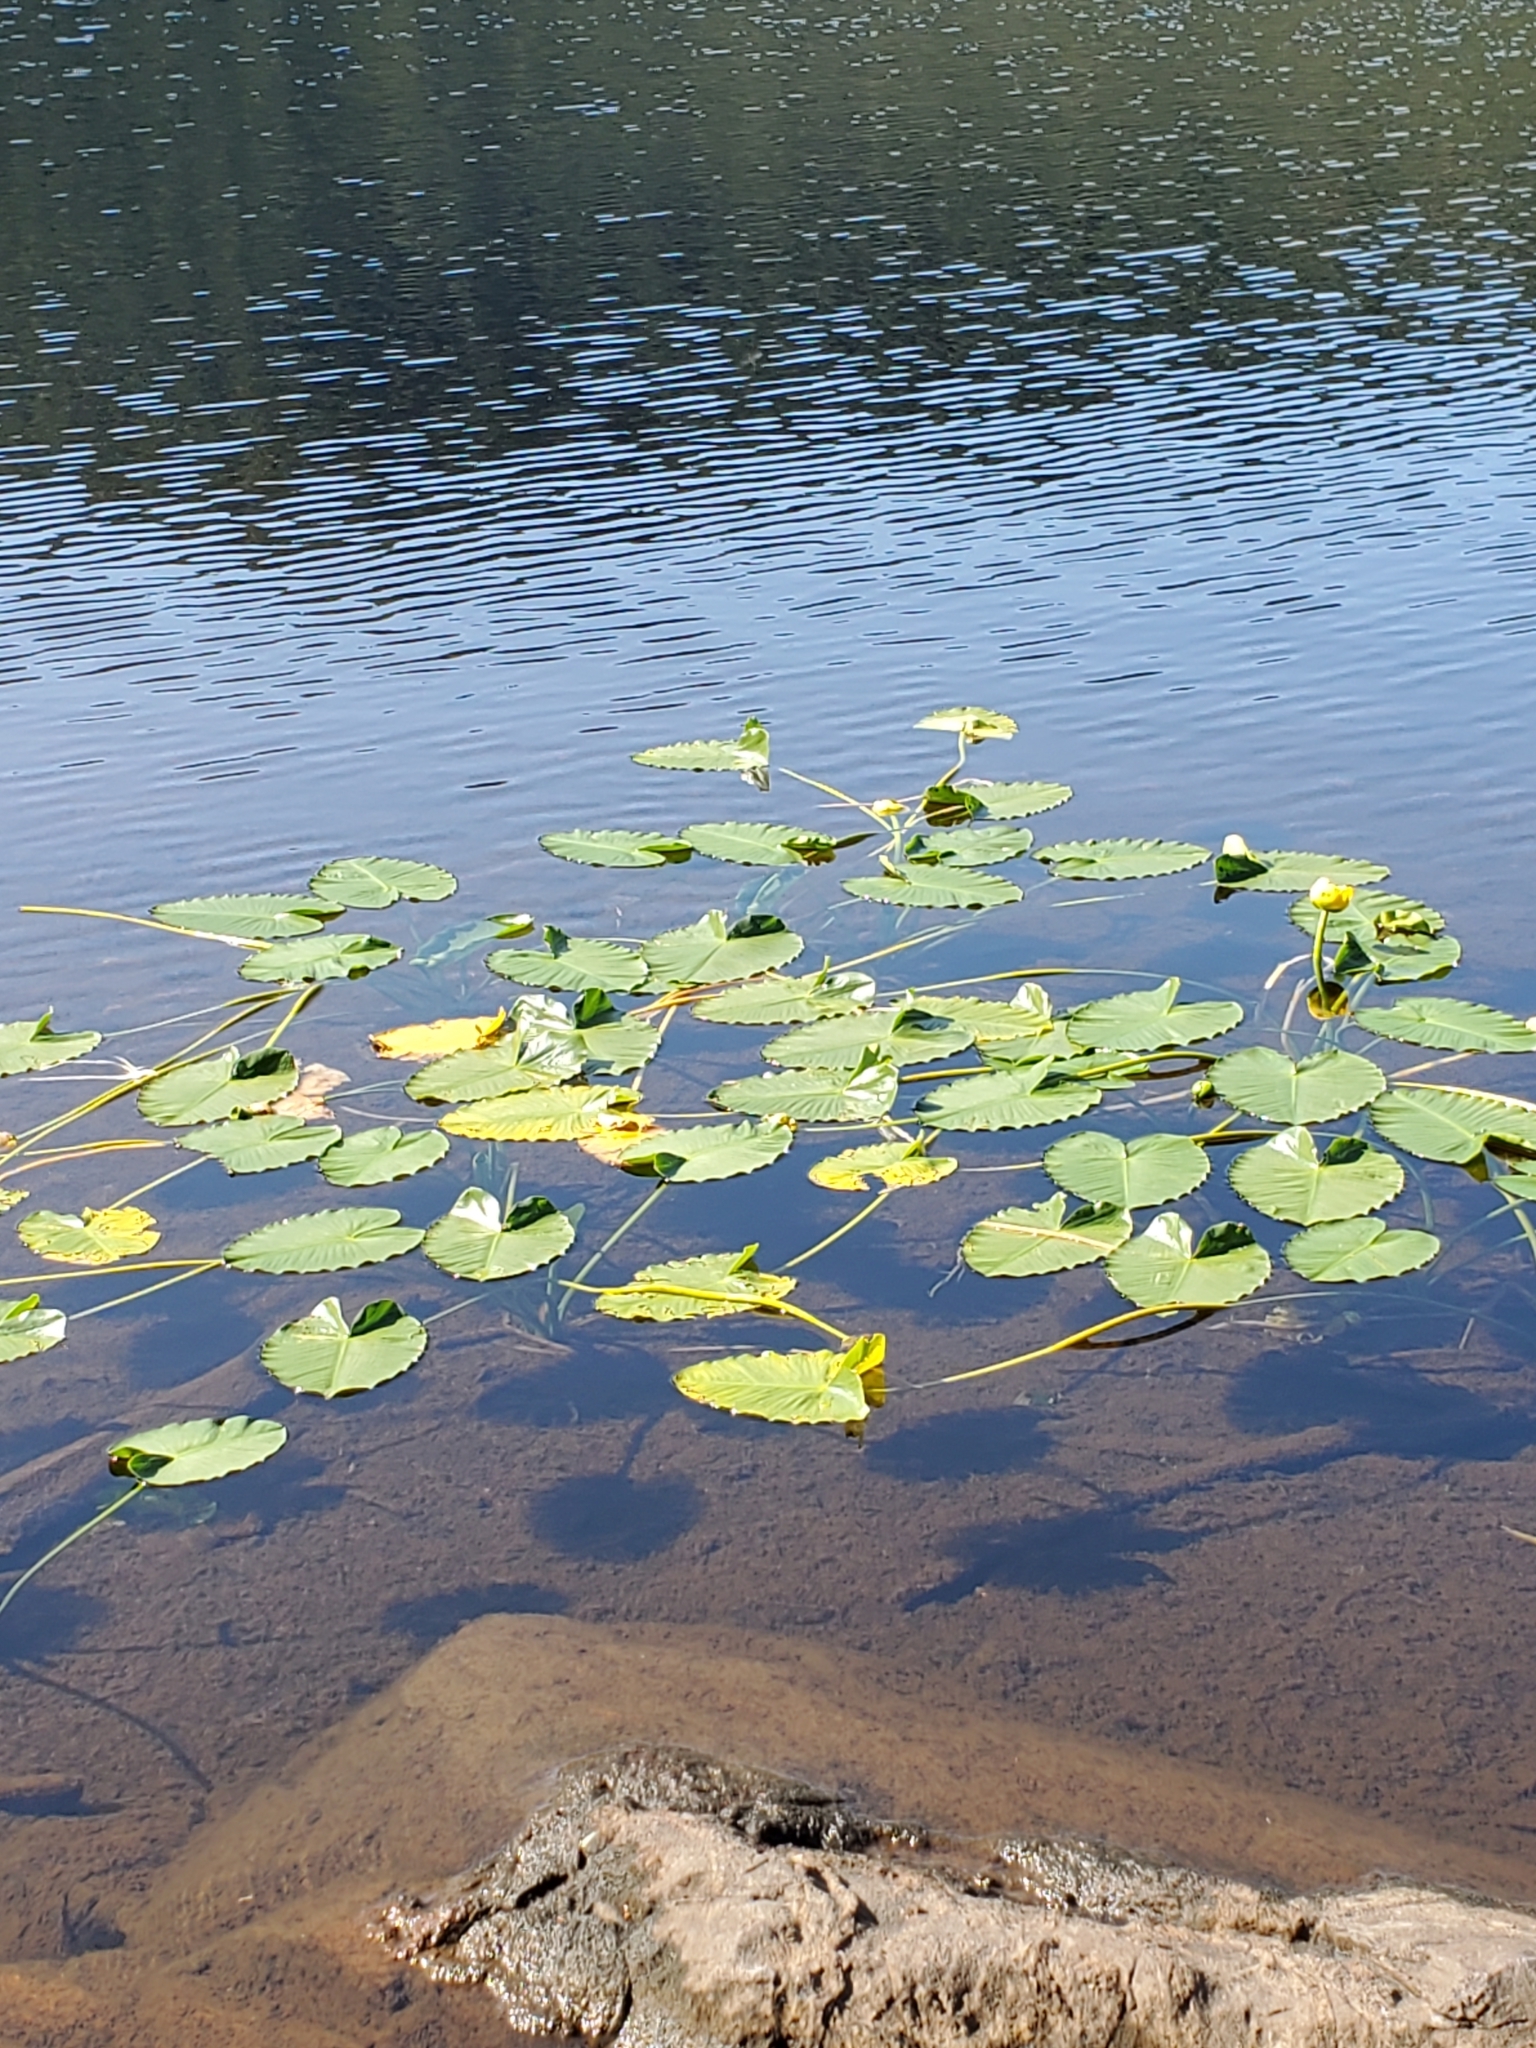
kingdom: Plantae
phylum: Tracheophyta
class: Magnoliopsida
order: Nymphaeales
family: Nymphaeaceae
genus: Nuphar
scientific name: Nuphar polysepala
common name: Rocky mountain cow-lily
